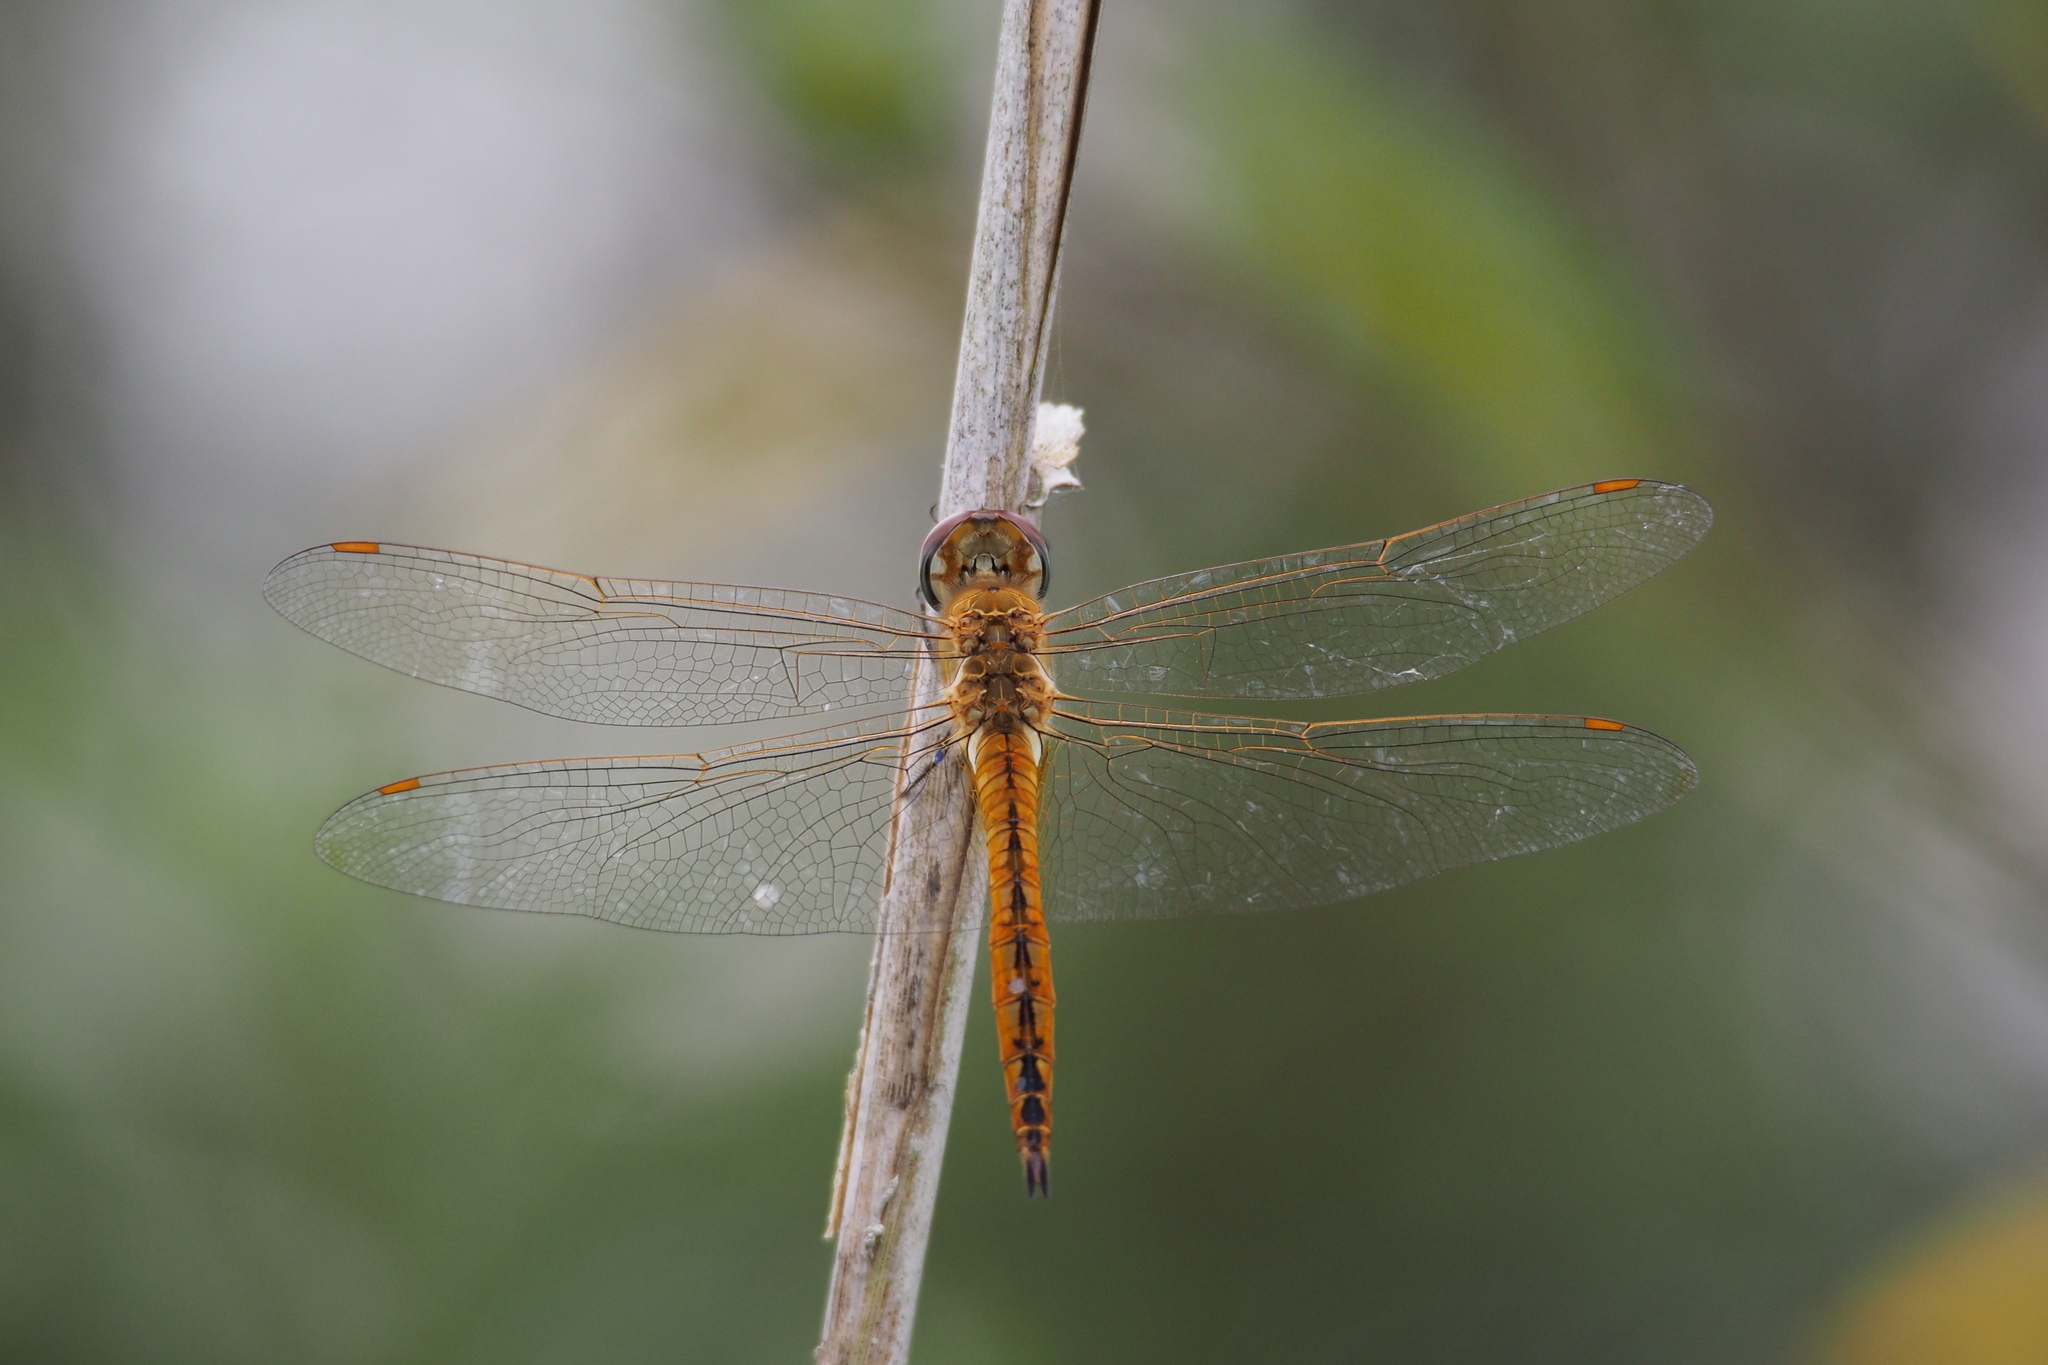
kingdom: Animalia
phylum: Arthropoda
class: Insecta
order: Odonata
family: Libellulidae
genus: Pantala
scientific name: Pantala flavescens
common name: Wandering glider
